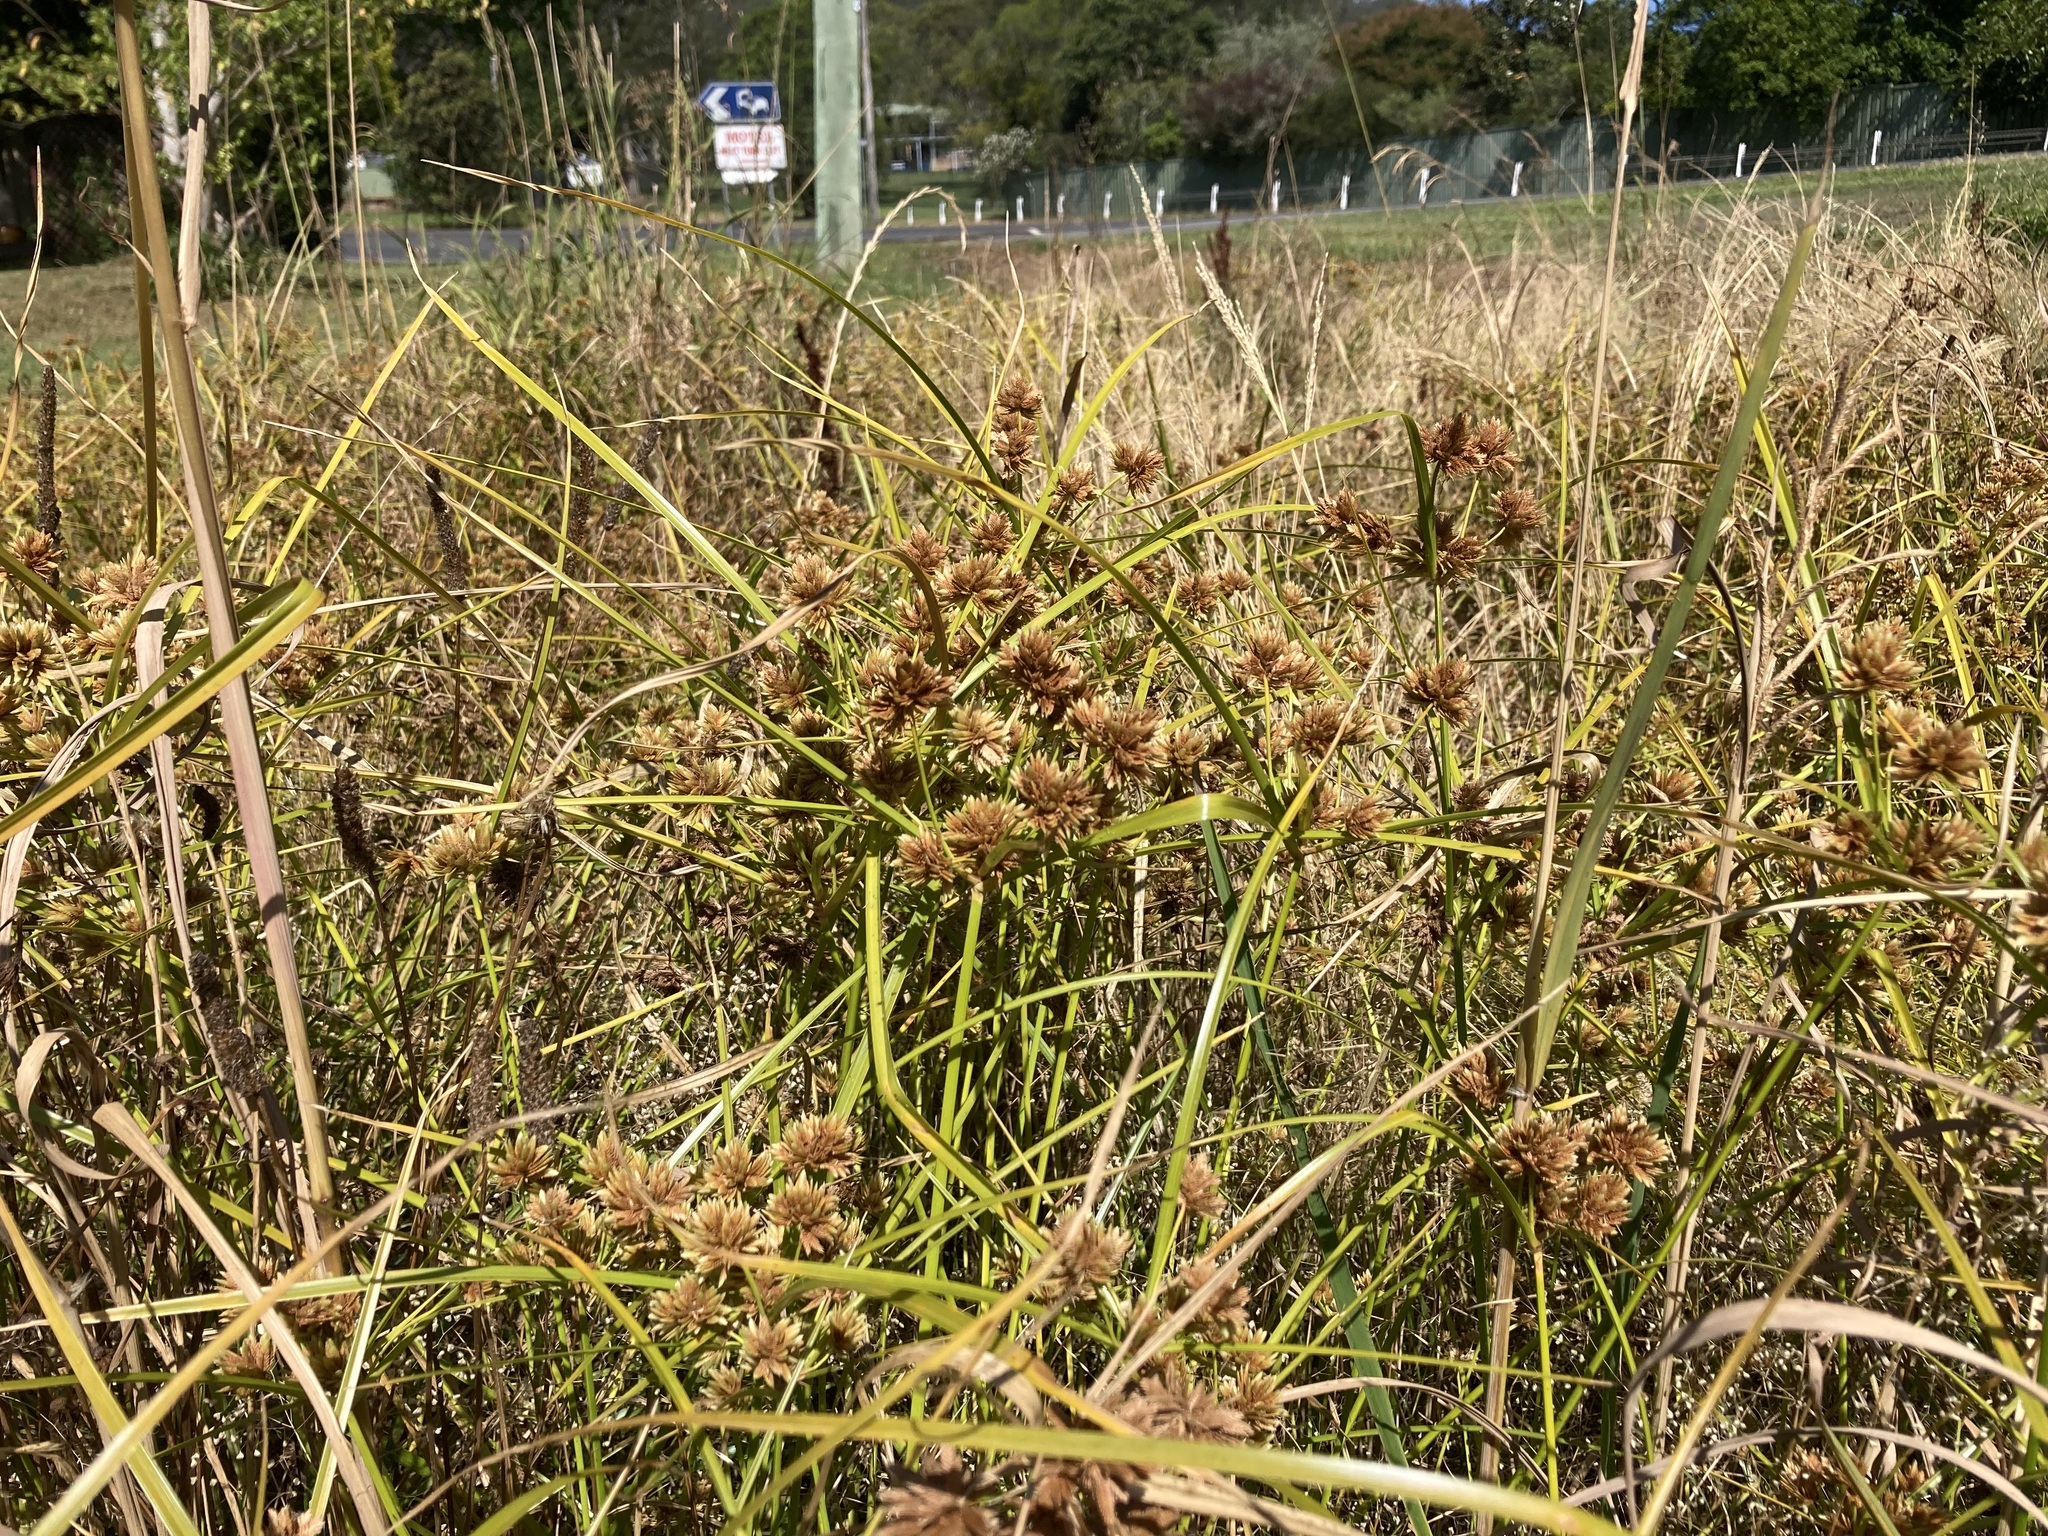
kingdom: Plantae
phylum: Tracheophyta
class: Liliopsida
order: Poales
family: Cyperaceae
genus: Cyperus
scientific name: Cyperus eragrostis
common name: Tall flatsedge
